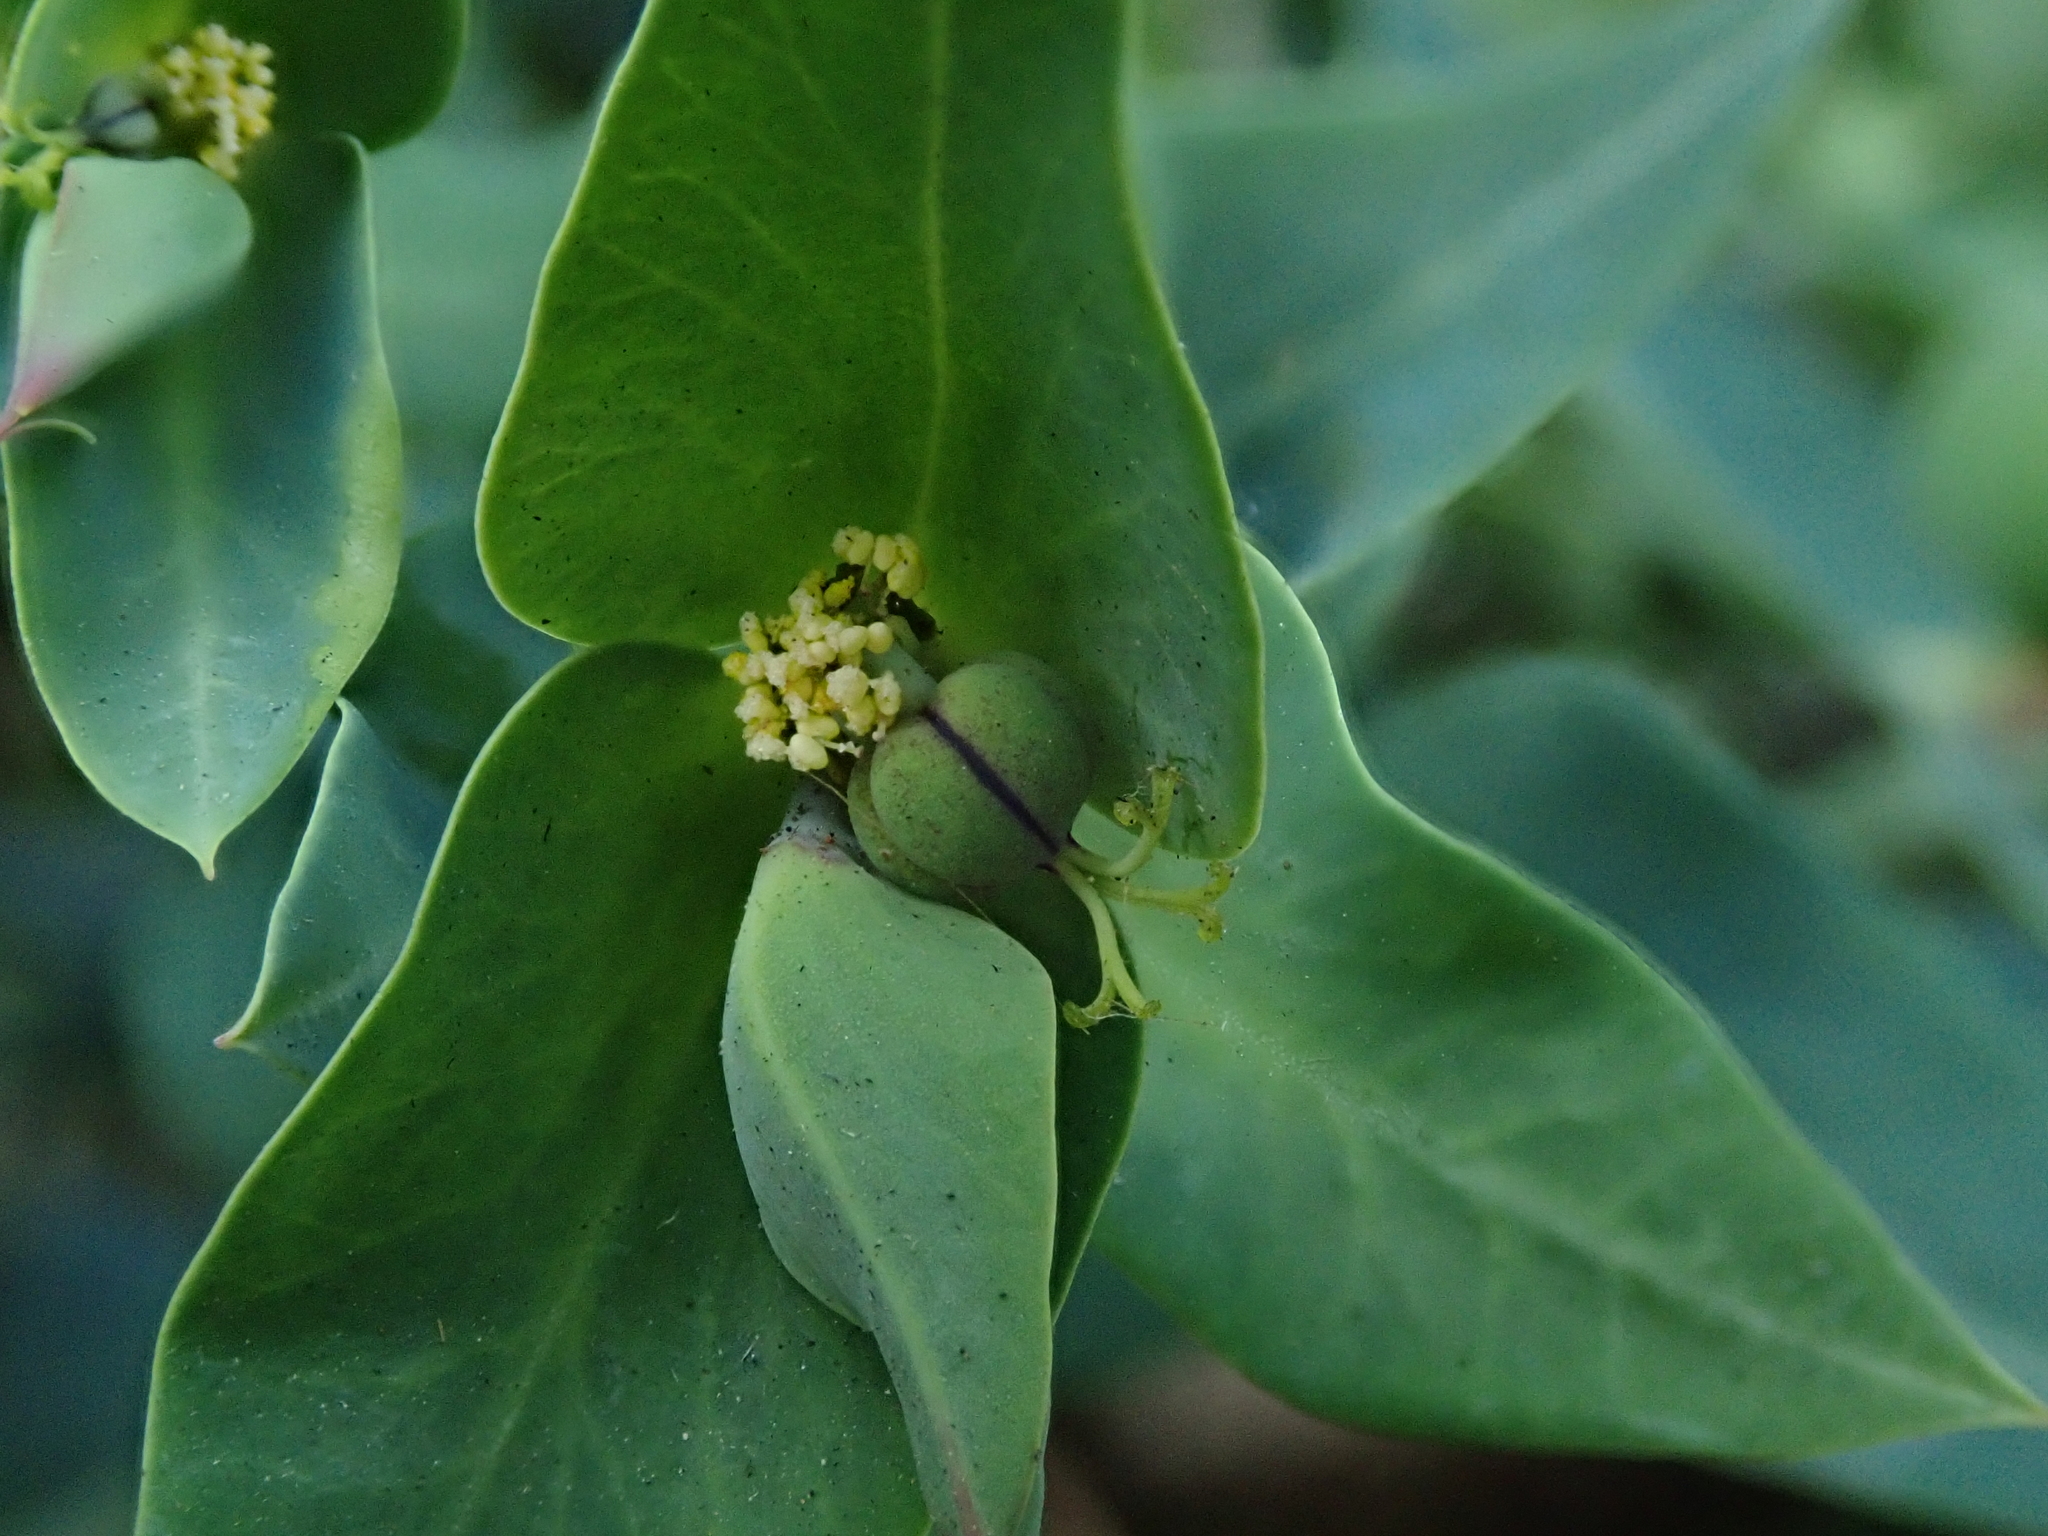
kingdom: Plantae
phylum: Tracheophyta
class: Magnoliopsida
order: Malpighiales
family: Euphorbiaceae
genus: Euphorbia
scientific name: Euphorbia lathyris
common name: Caper spurge
